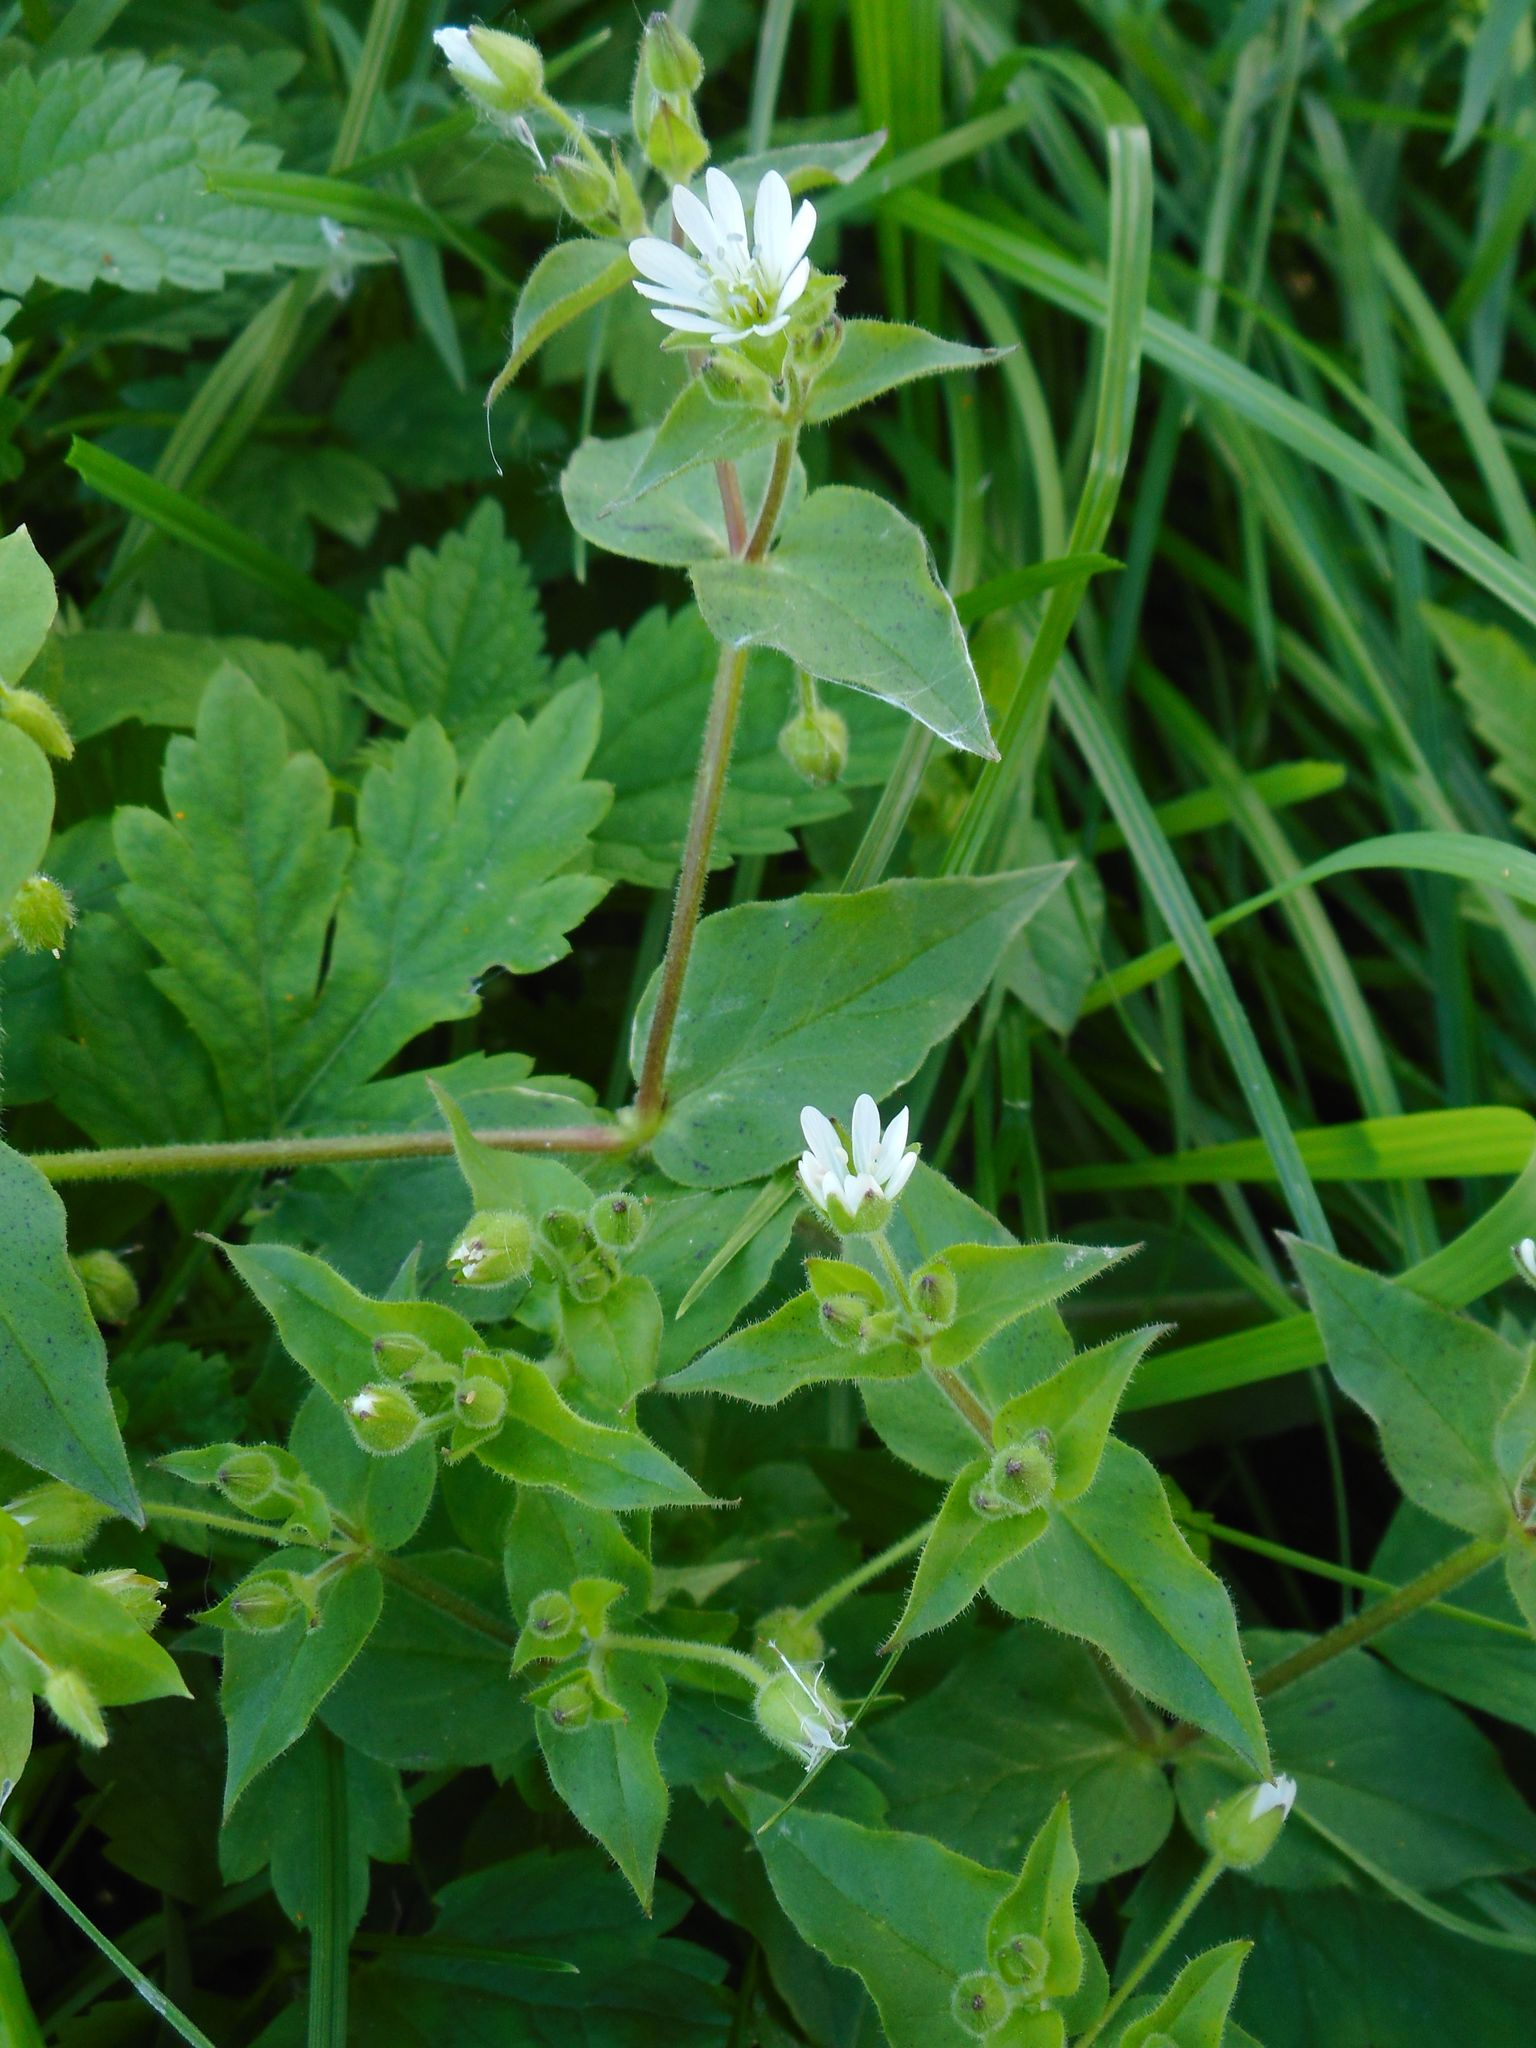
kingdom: Plantae
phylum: Tracheophyta
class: Magnoliopsida
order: Caryophyllales
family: Caryophyllaceae
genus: Stellaria
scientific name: Stellaria aquatica
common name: Water chickweed
